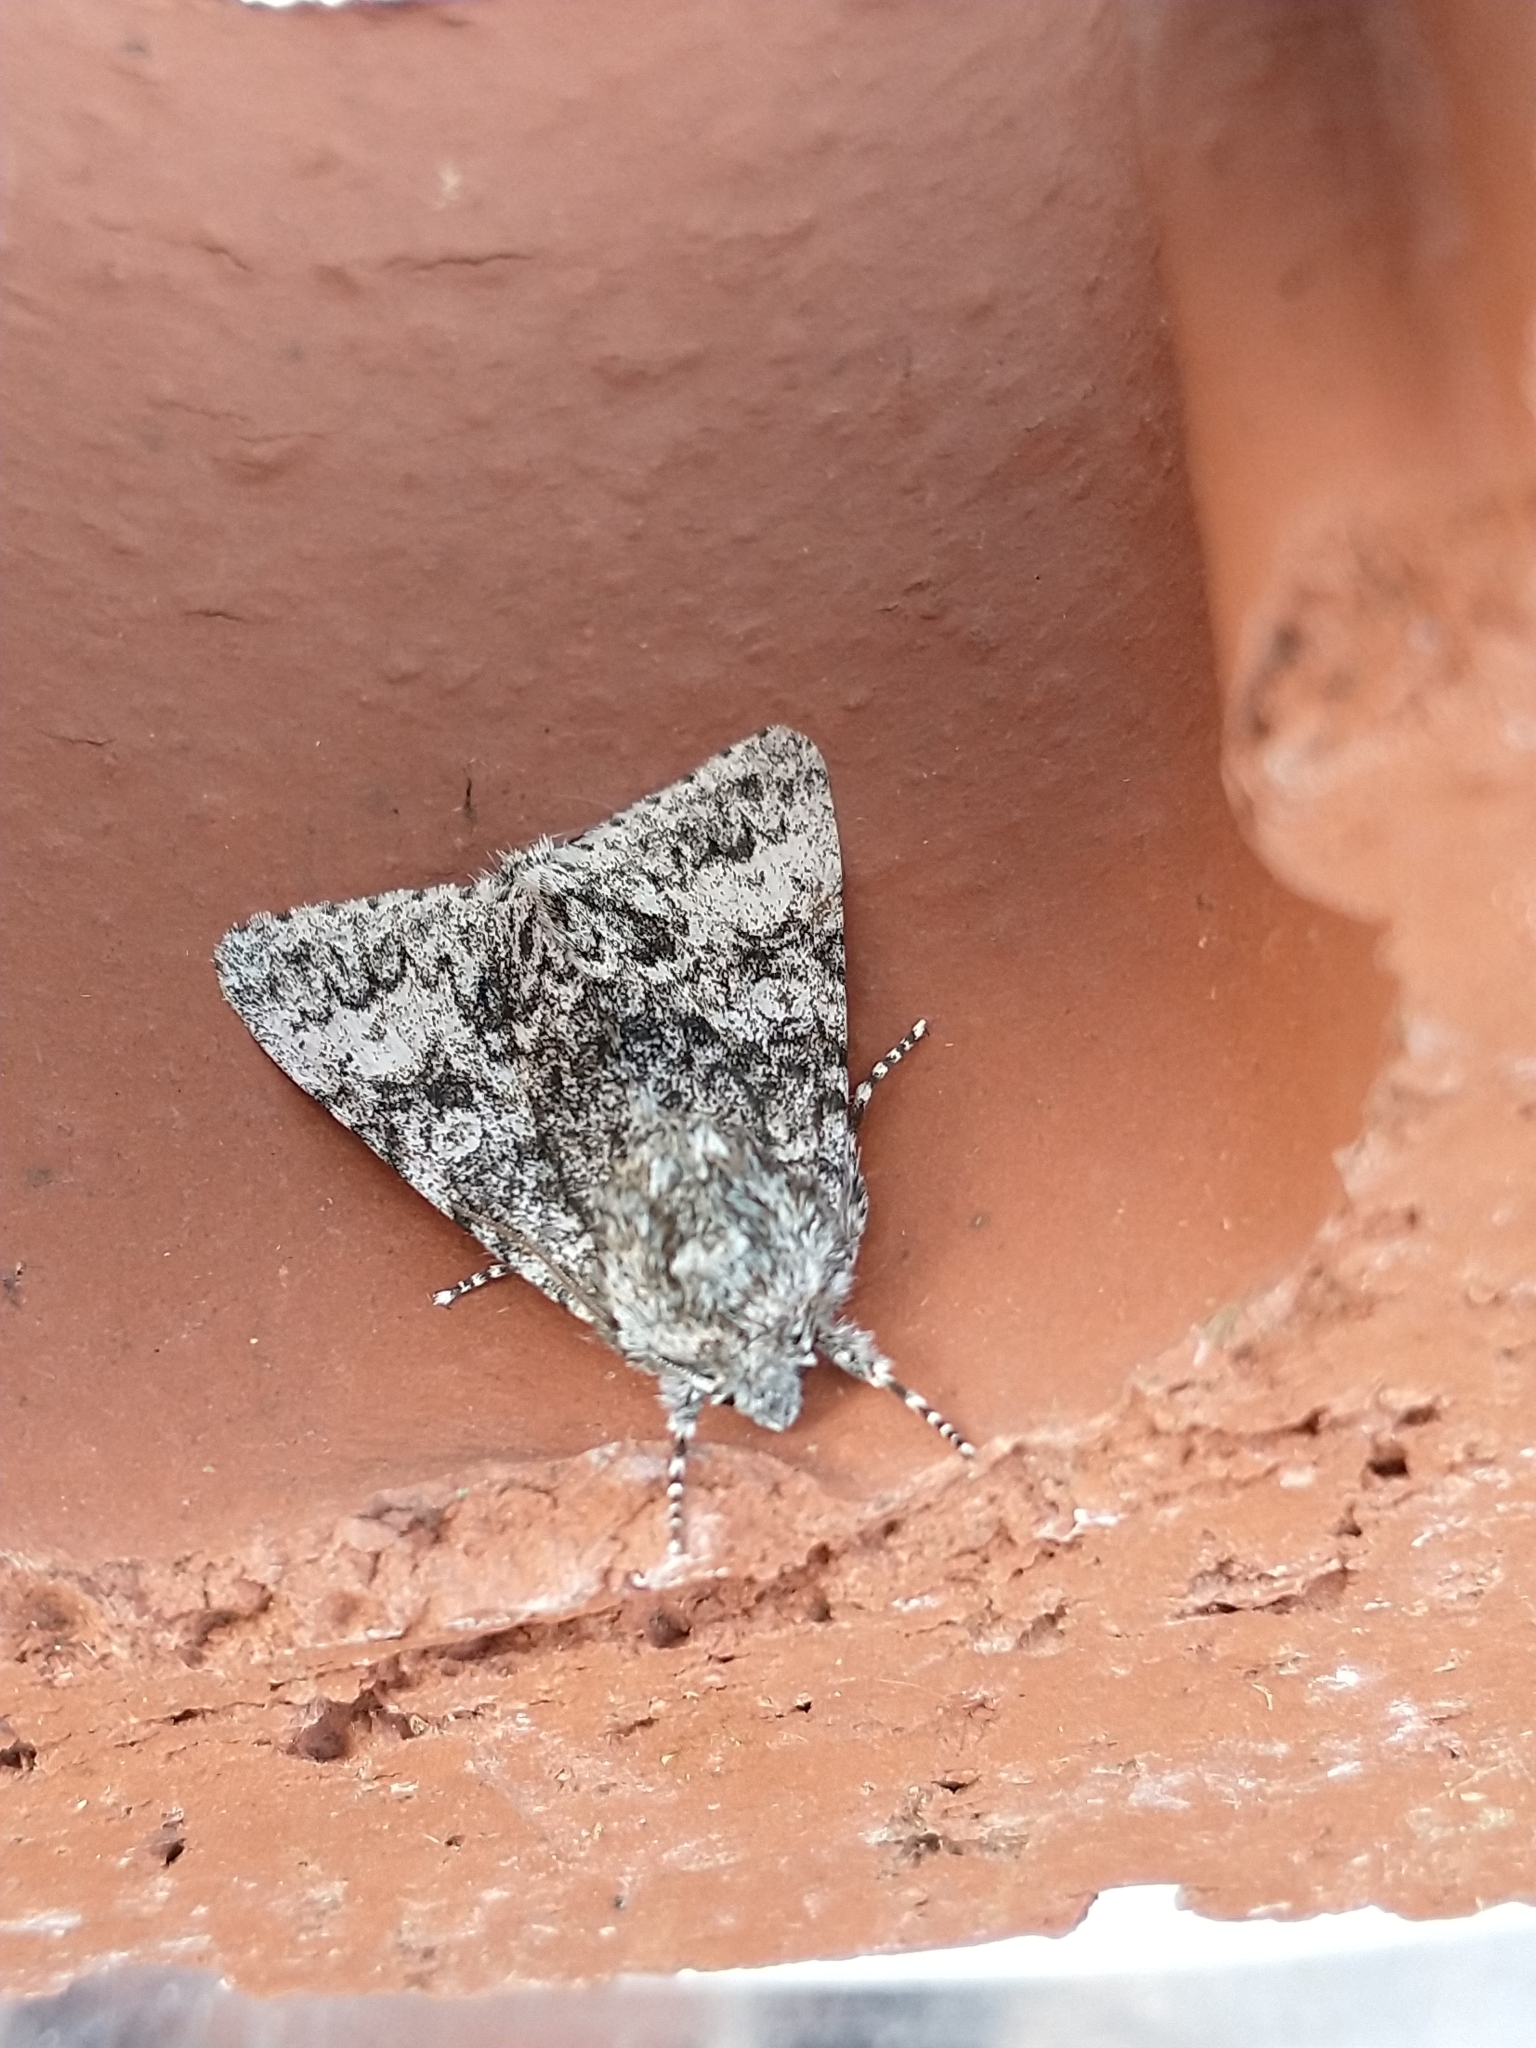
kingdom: Animalia
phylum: Arthropoda
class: Insecta
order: Lepidoptera
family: Noctuidae
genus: Acronicta
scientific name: Acronicta megacephala
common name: Poplar grey
